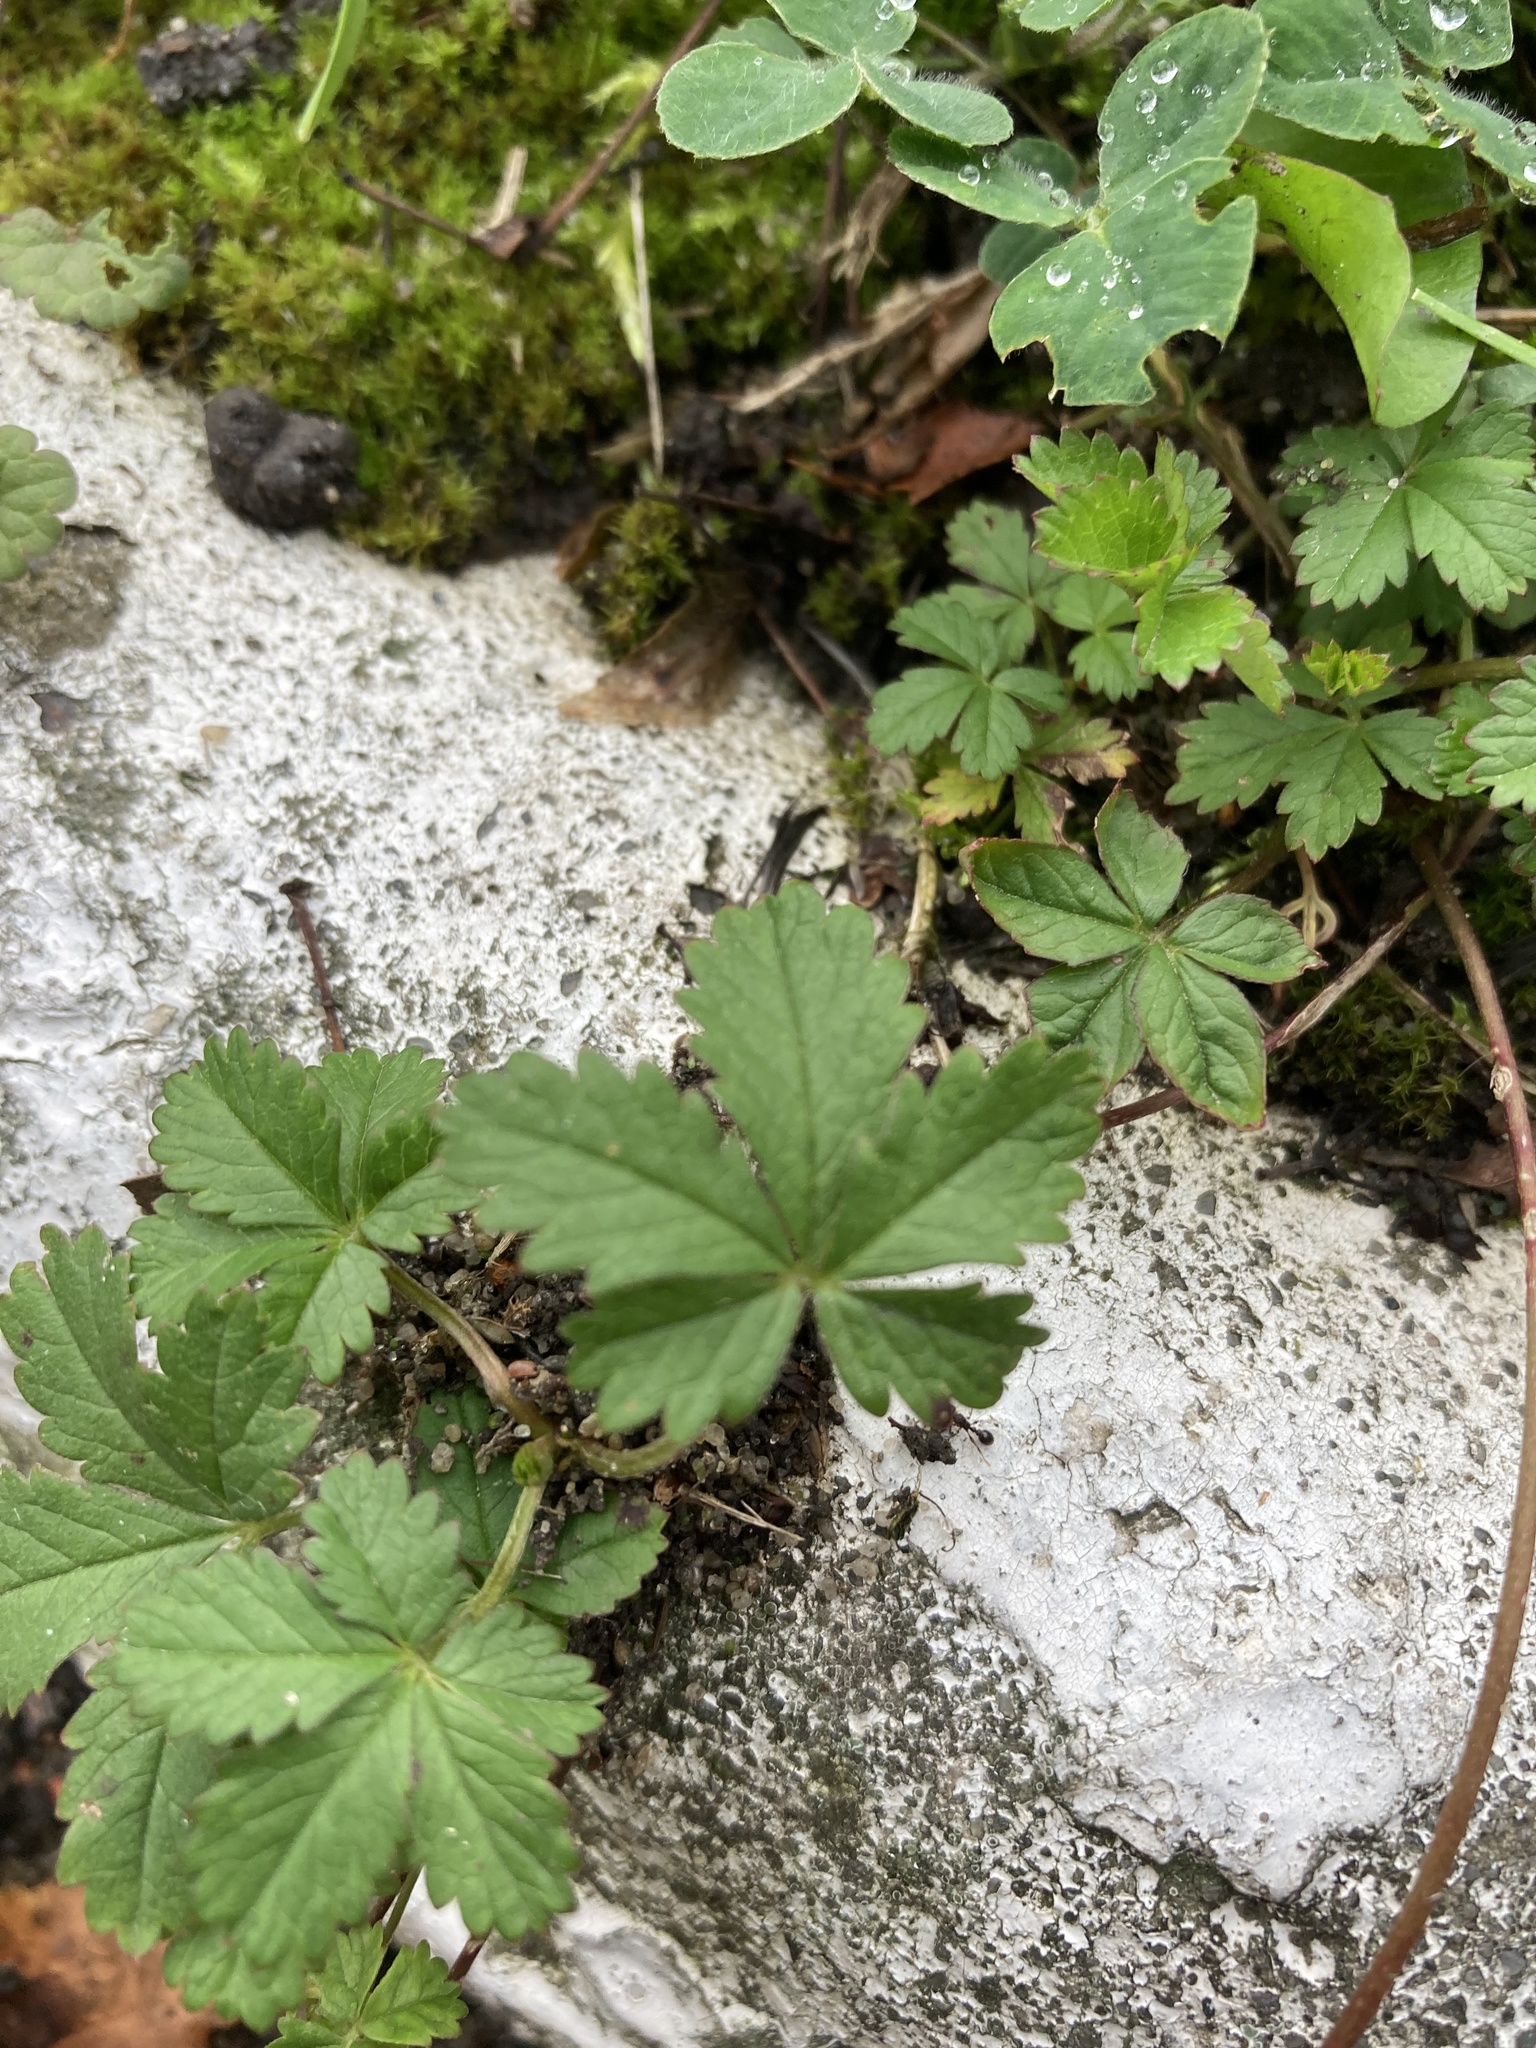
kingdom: Plantae
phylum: Tracheophyta
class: Magnoliopsida
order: Rosales
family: Rosaceae
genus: Potentilla
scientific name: Potentilla reptans
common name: Creeping cinquefoil
